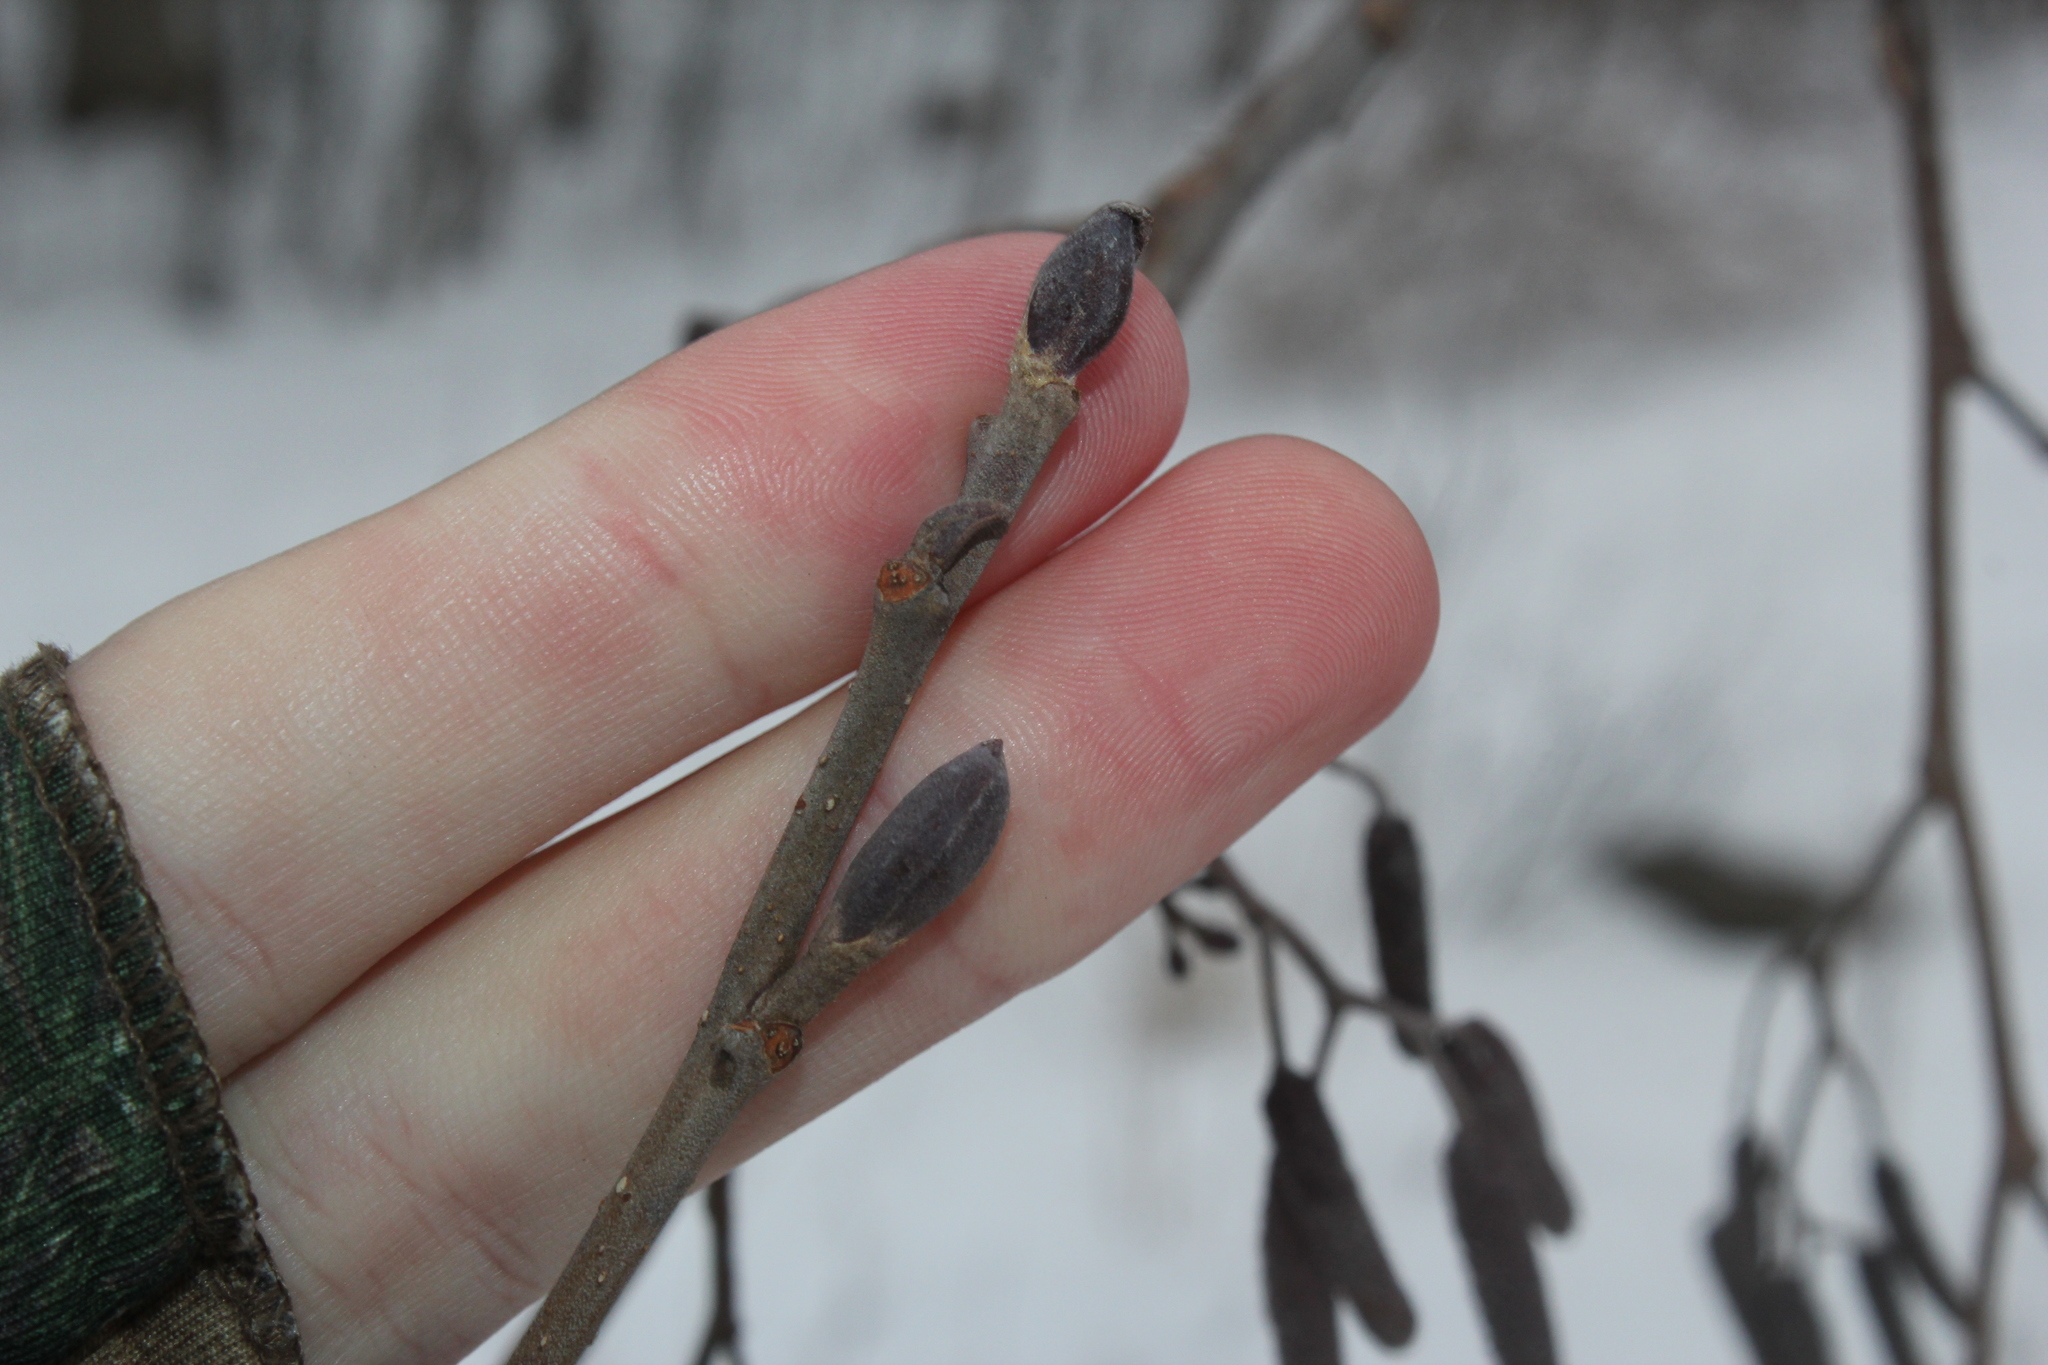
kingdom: Plantae
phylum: Tracheophyta
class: Magnoliopsida
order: Fagales
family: Betulaceae
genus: Alnus
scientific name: Alnus glutinosa
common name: Black alder
